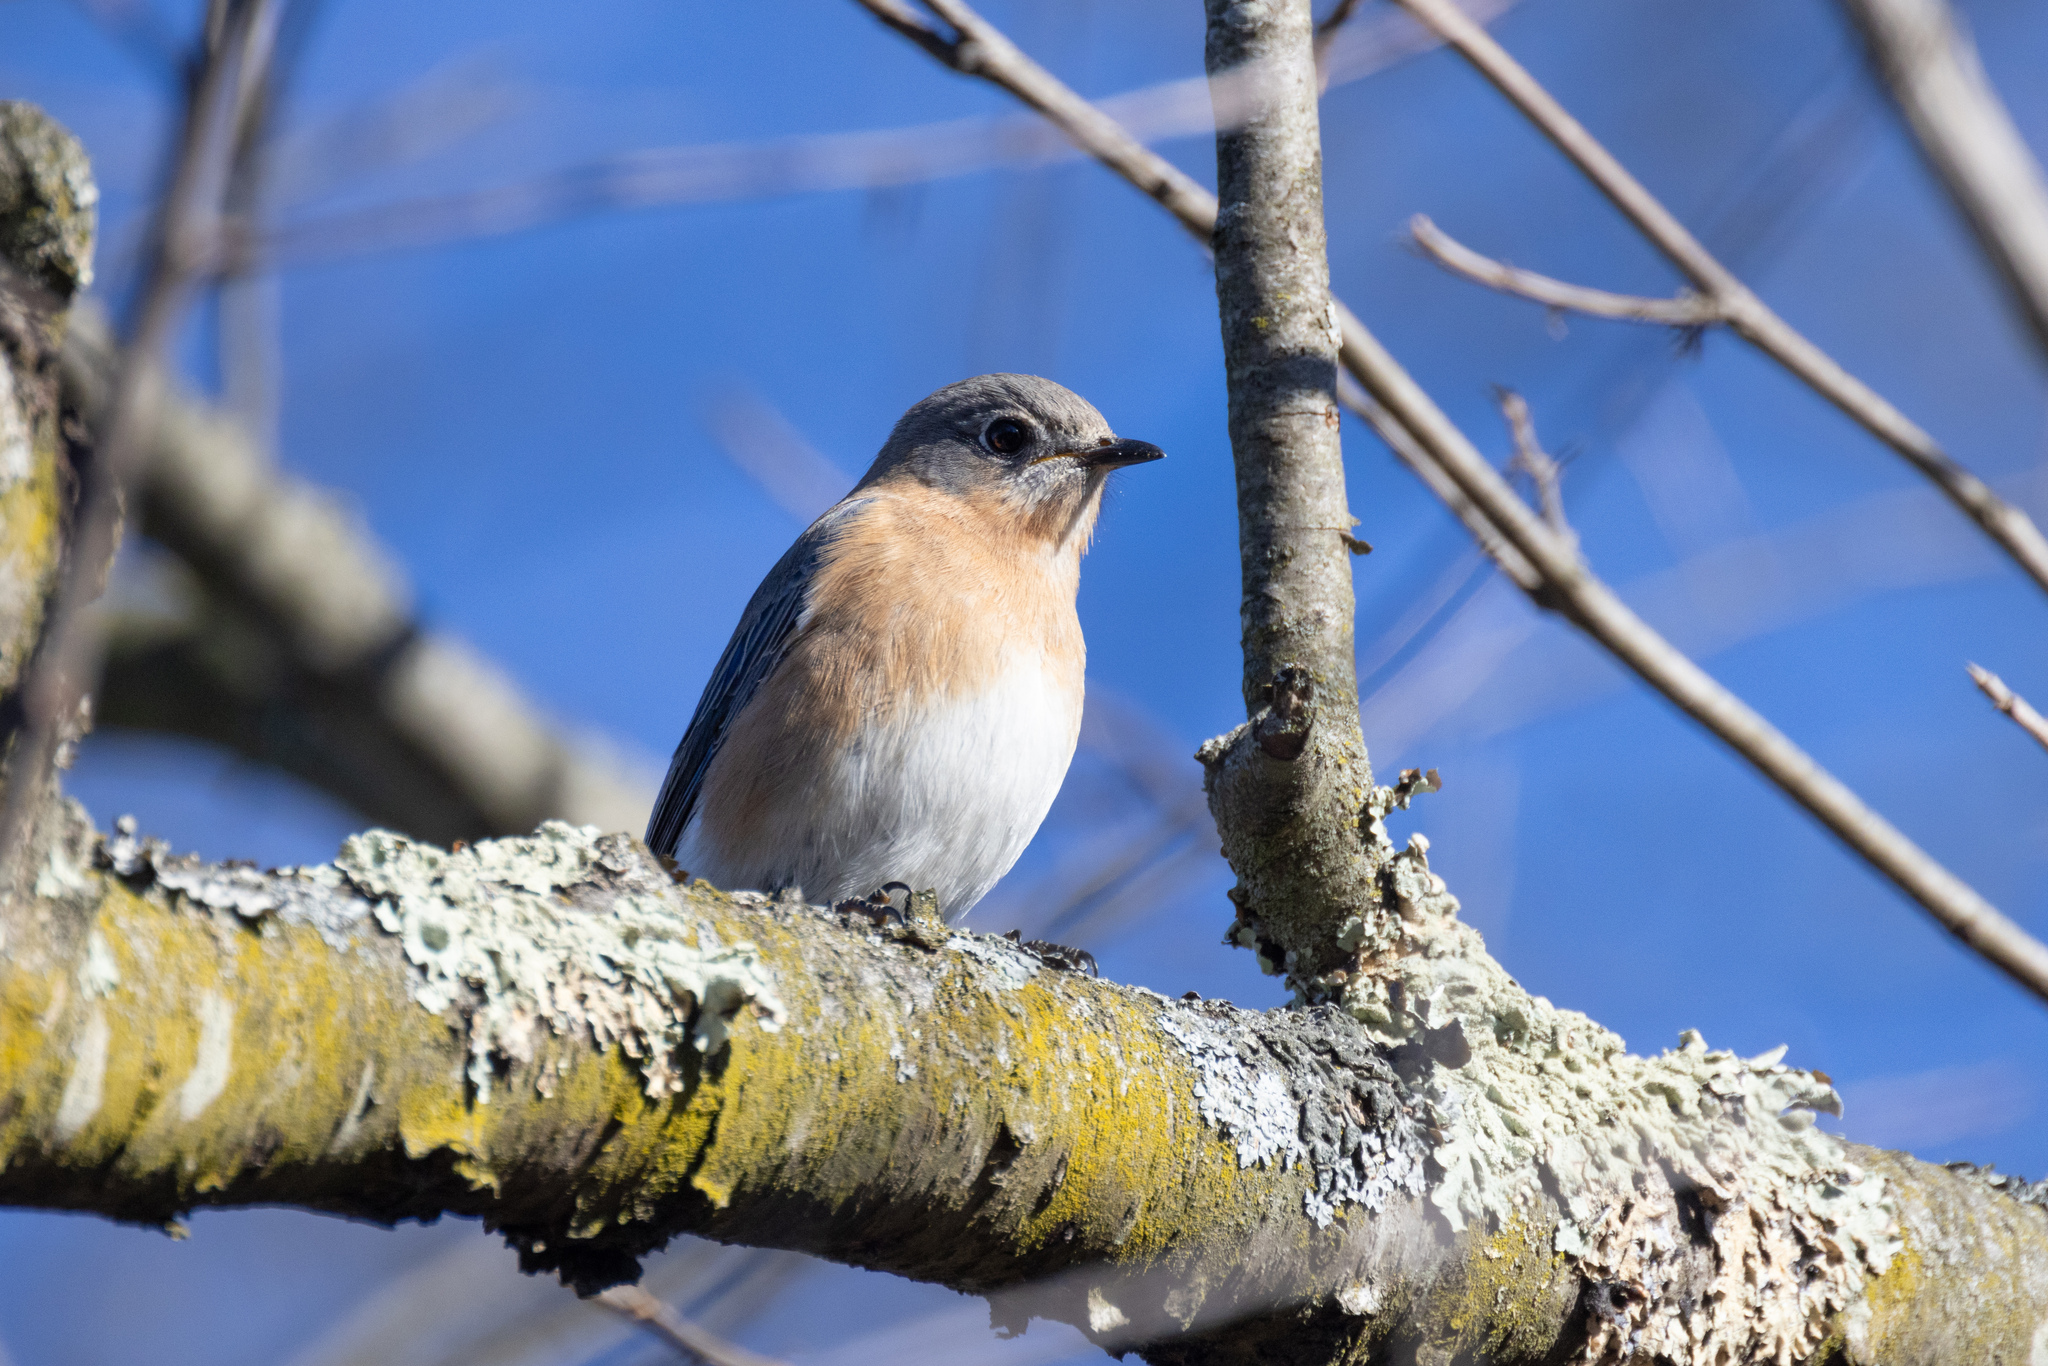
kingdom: Animalia
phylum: Chordata
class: Aves
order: Passeriformes
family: Turdidae
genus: Sialia
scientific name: Sialia sialis
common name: Eastern bluebird
